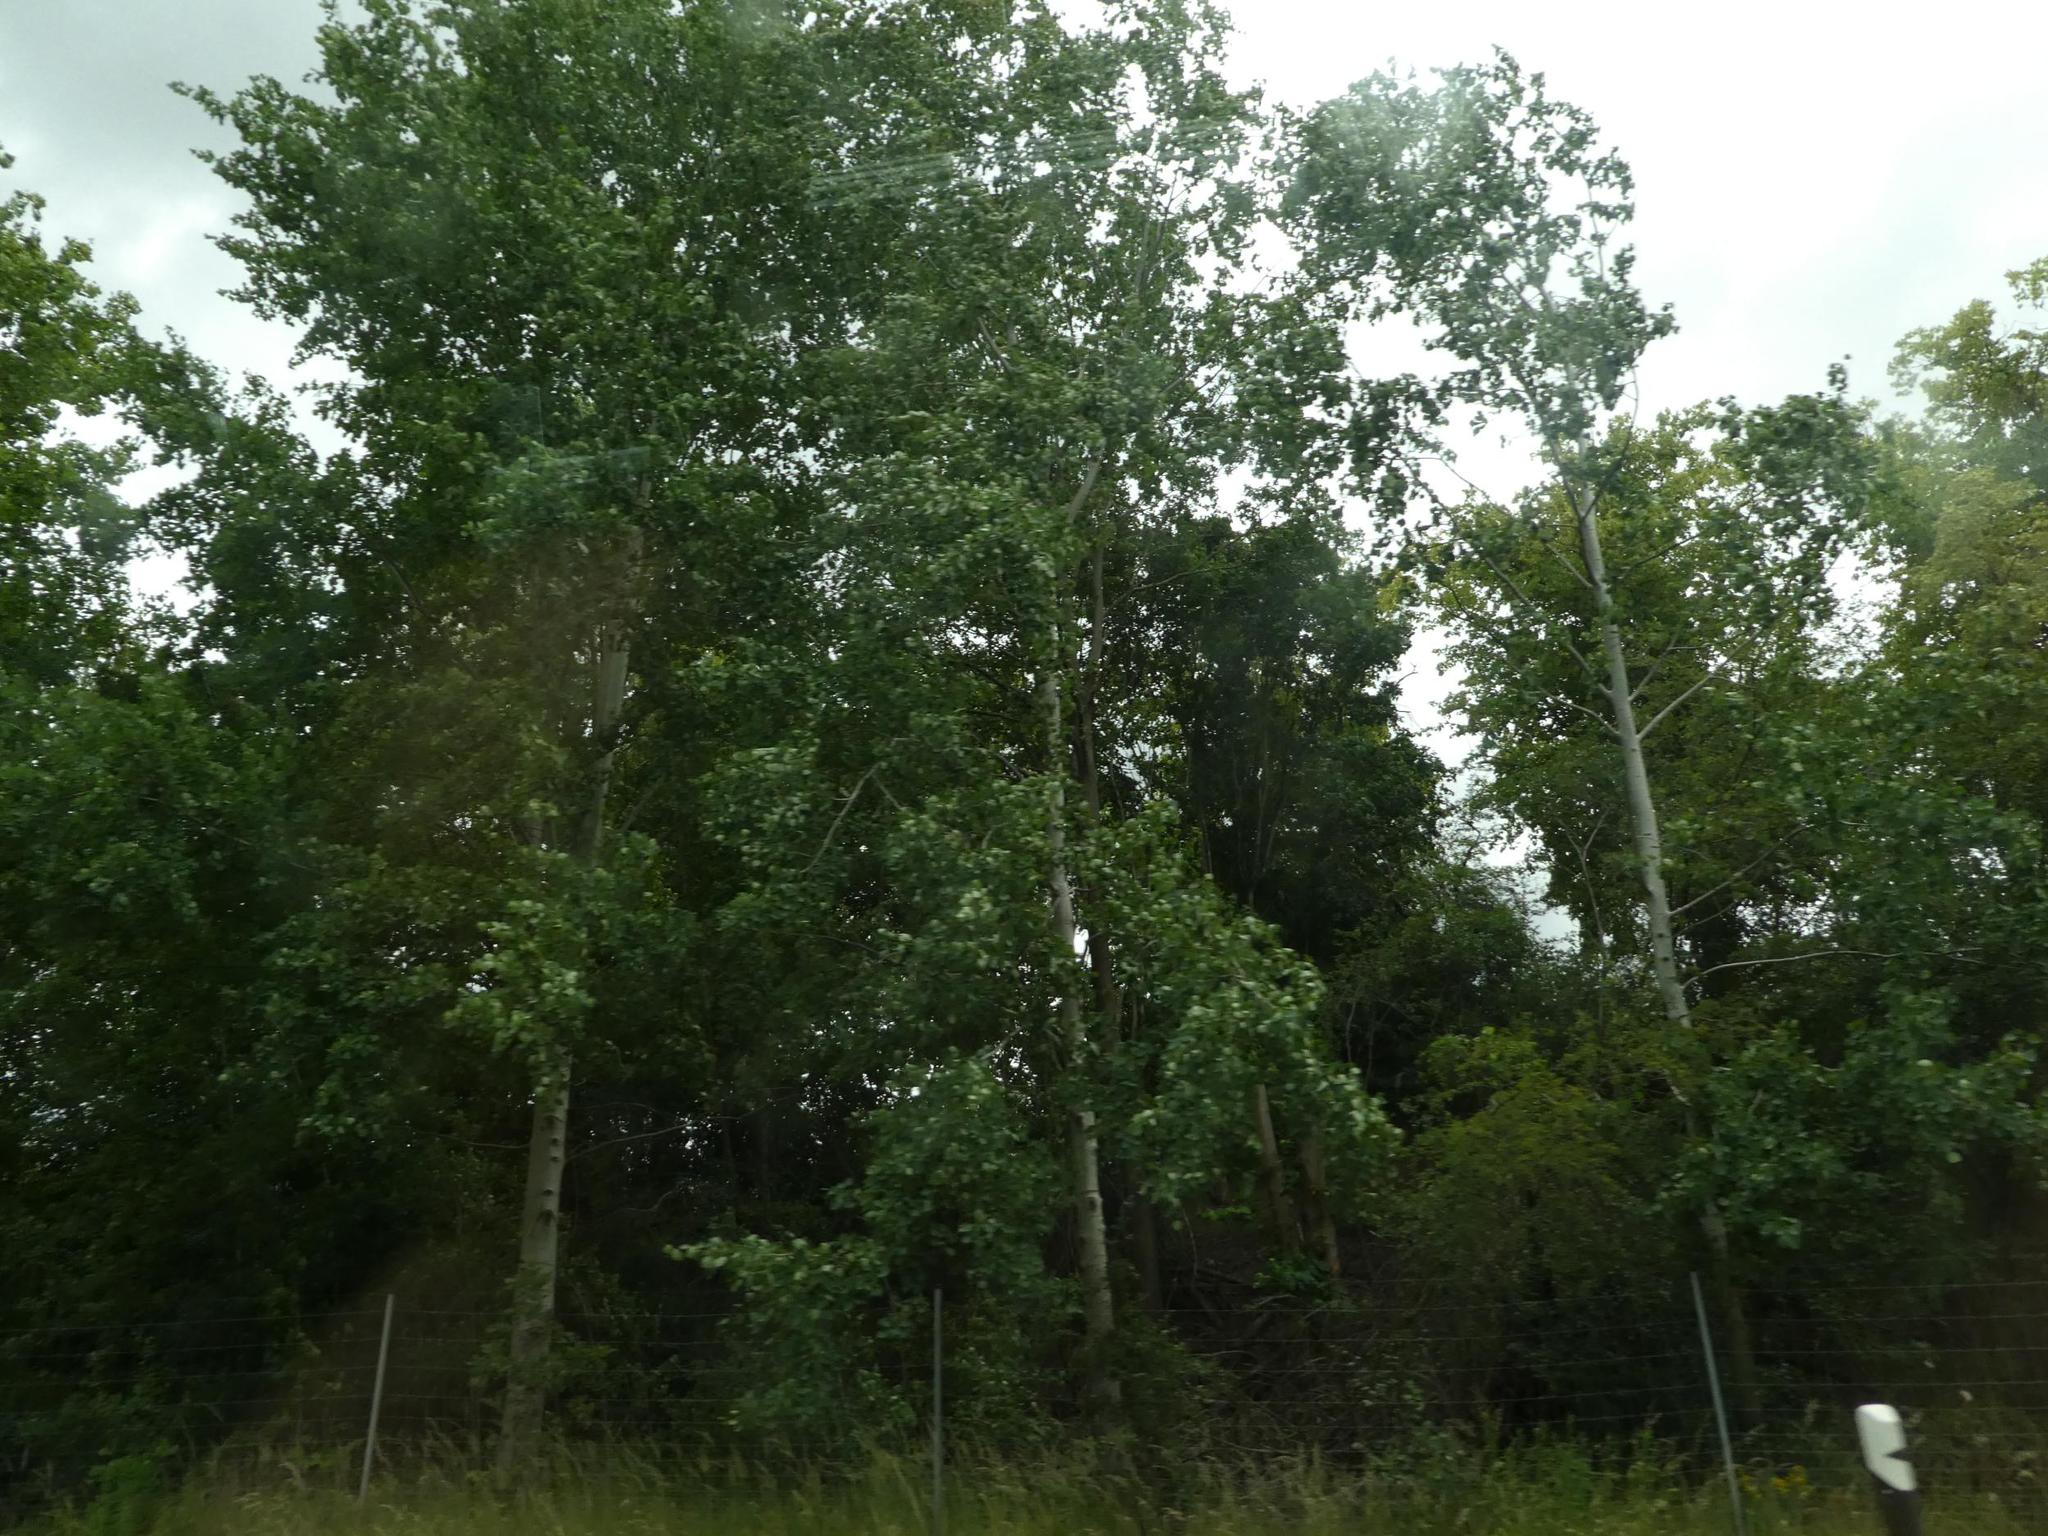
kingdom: Plantae
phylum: Tracheophyta
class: Magnoliopsida
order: Malpighiales
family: Salicaceae
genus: Populus
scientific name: Populus tremula
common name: European aspen
